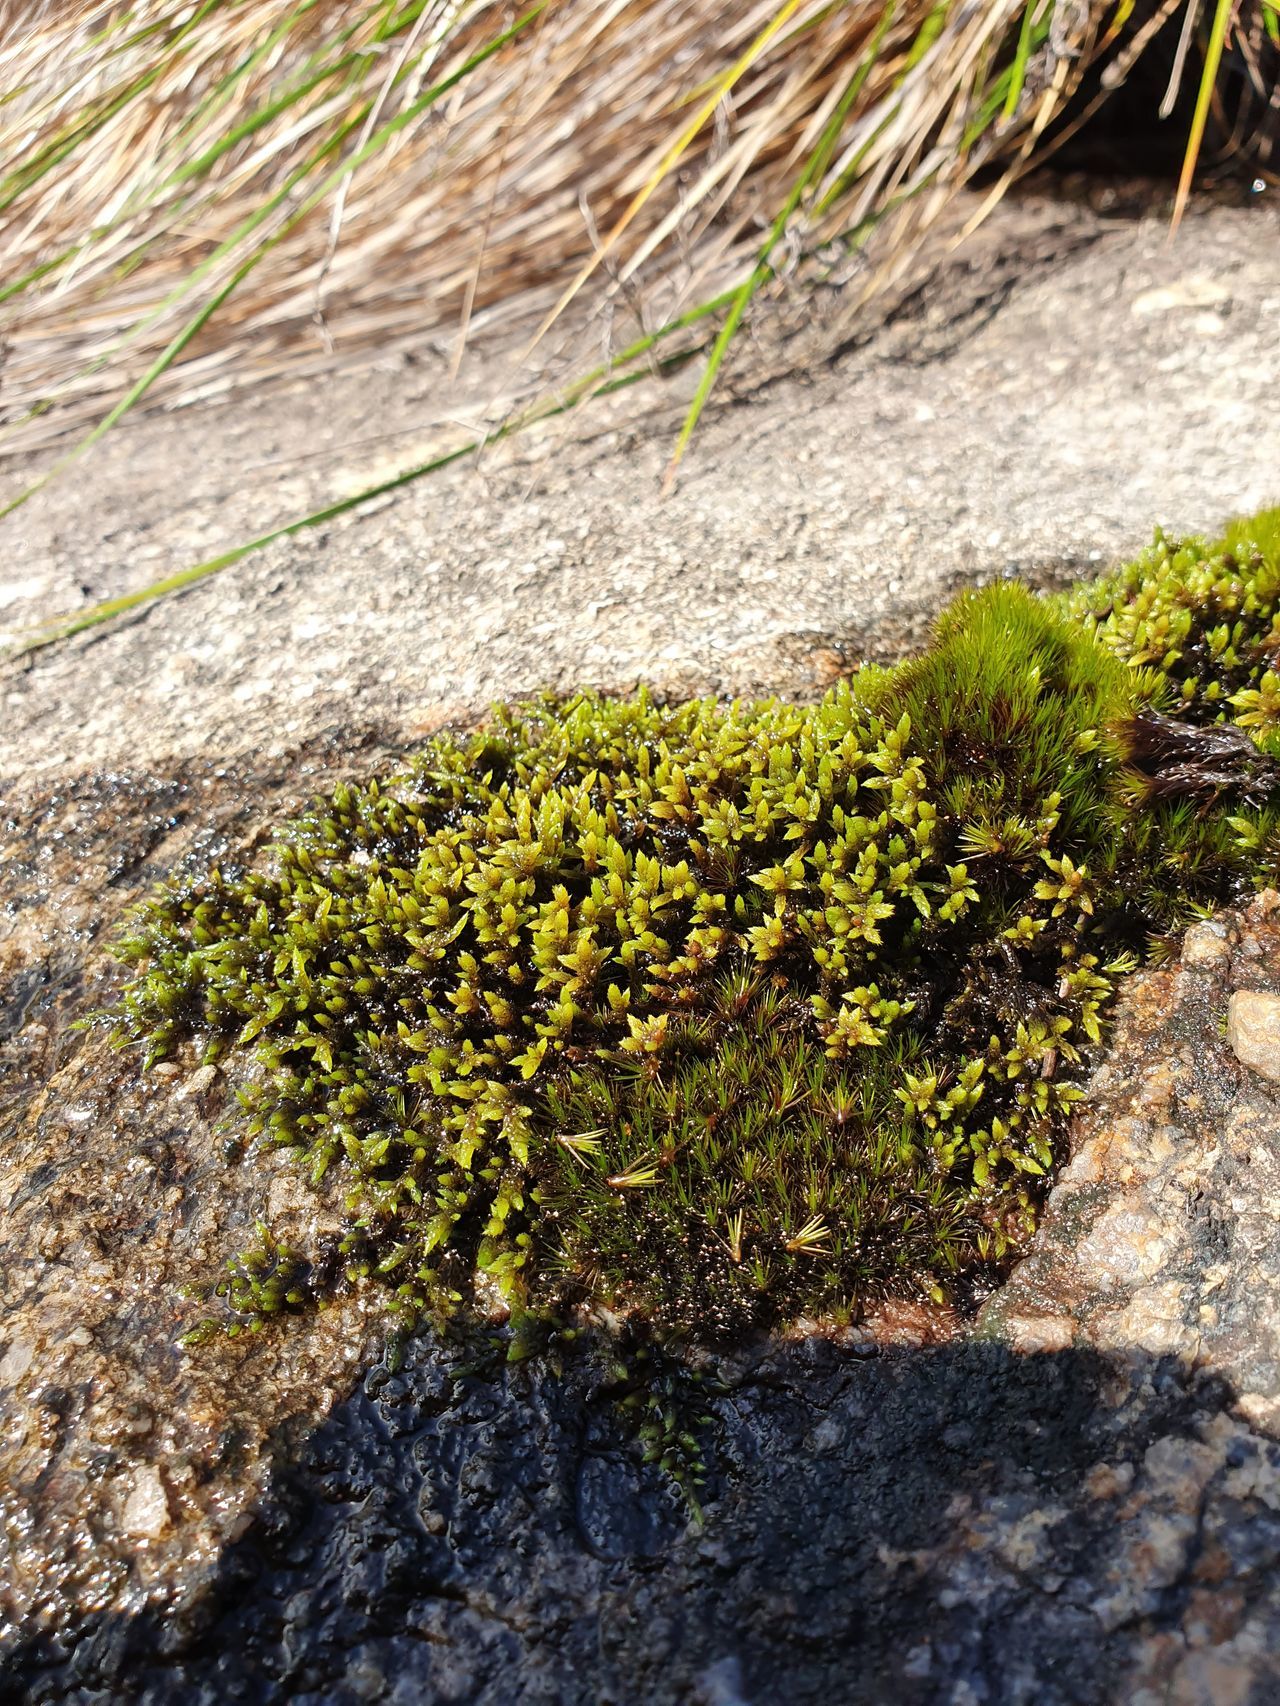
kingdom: Plantae
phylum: Bryophyta
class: Bryopsida
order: Hedwigiales
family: Hedwigiaceae
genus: Rhacocarpus
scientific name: Rhacocarpus purpurascens
